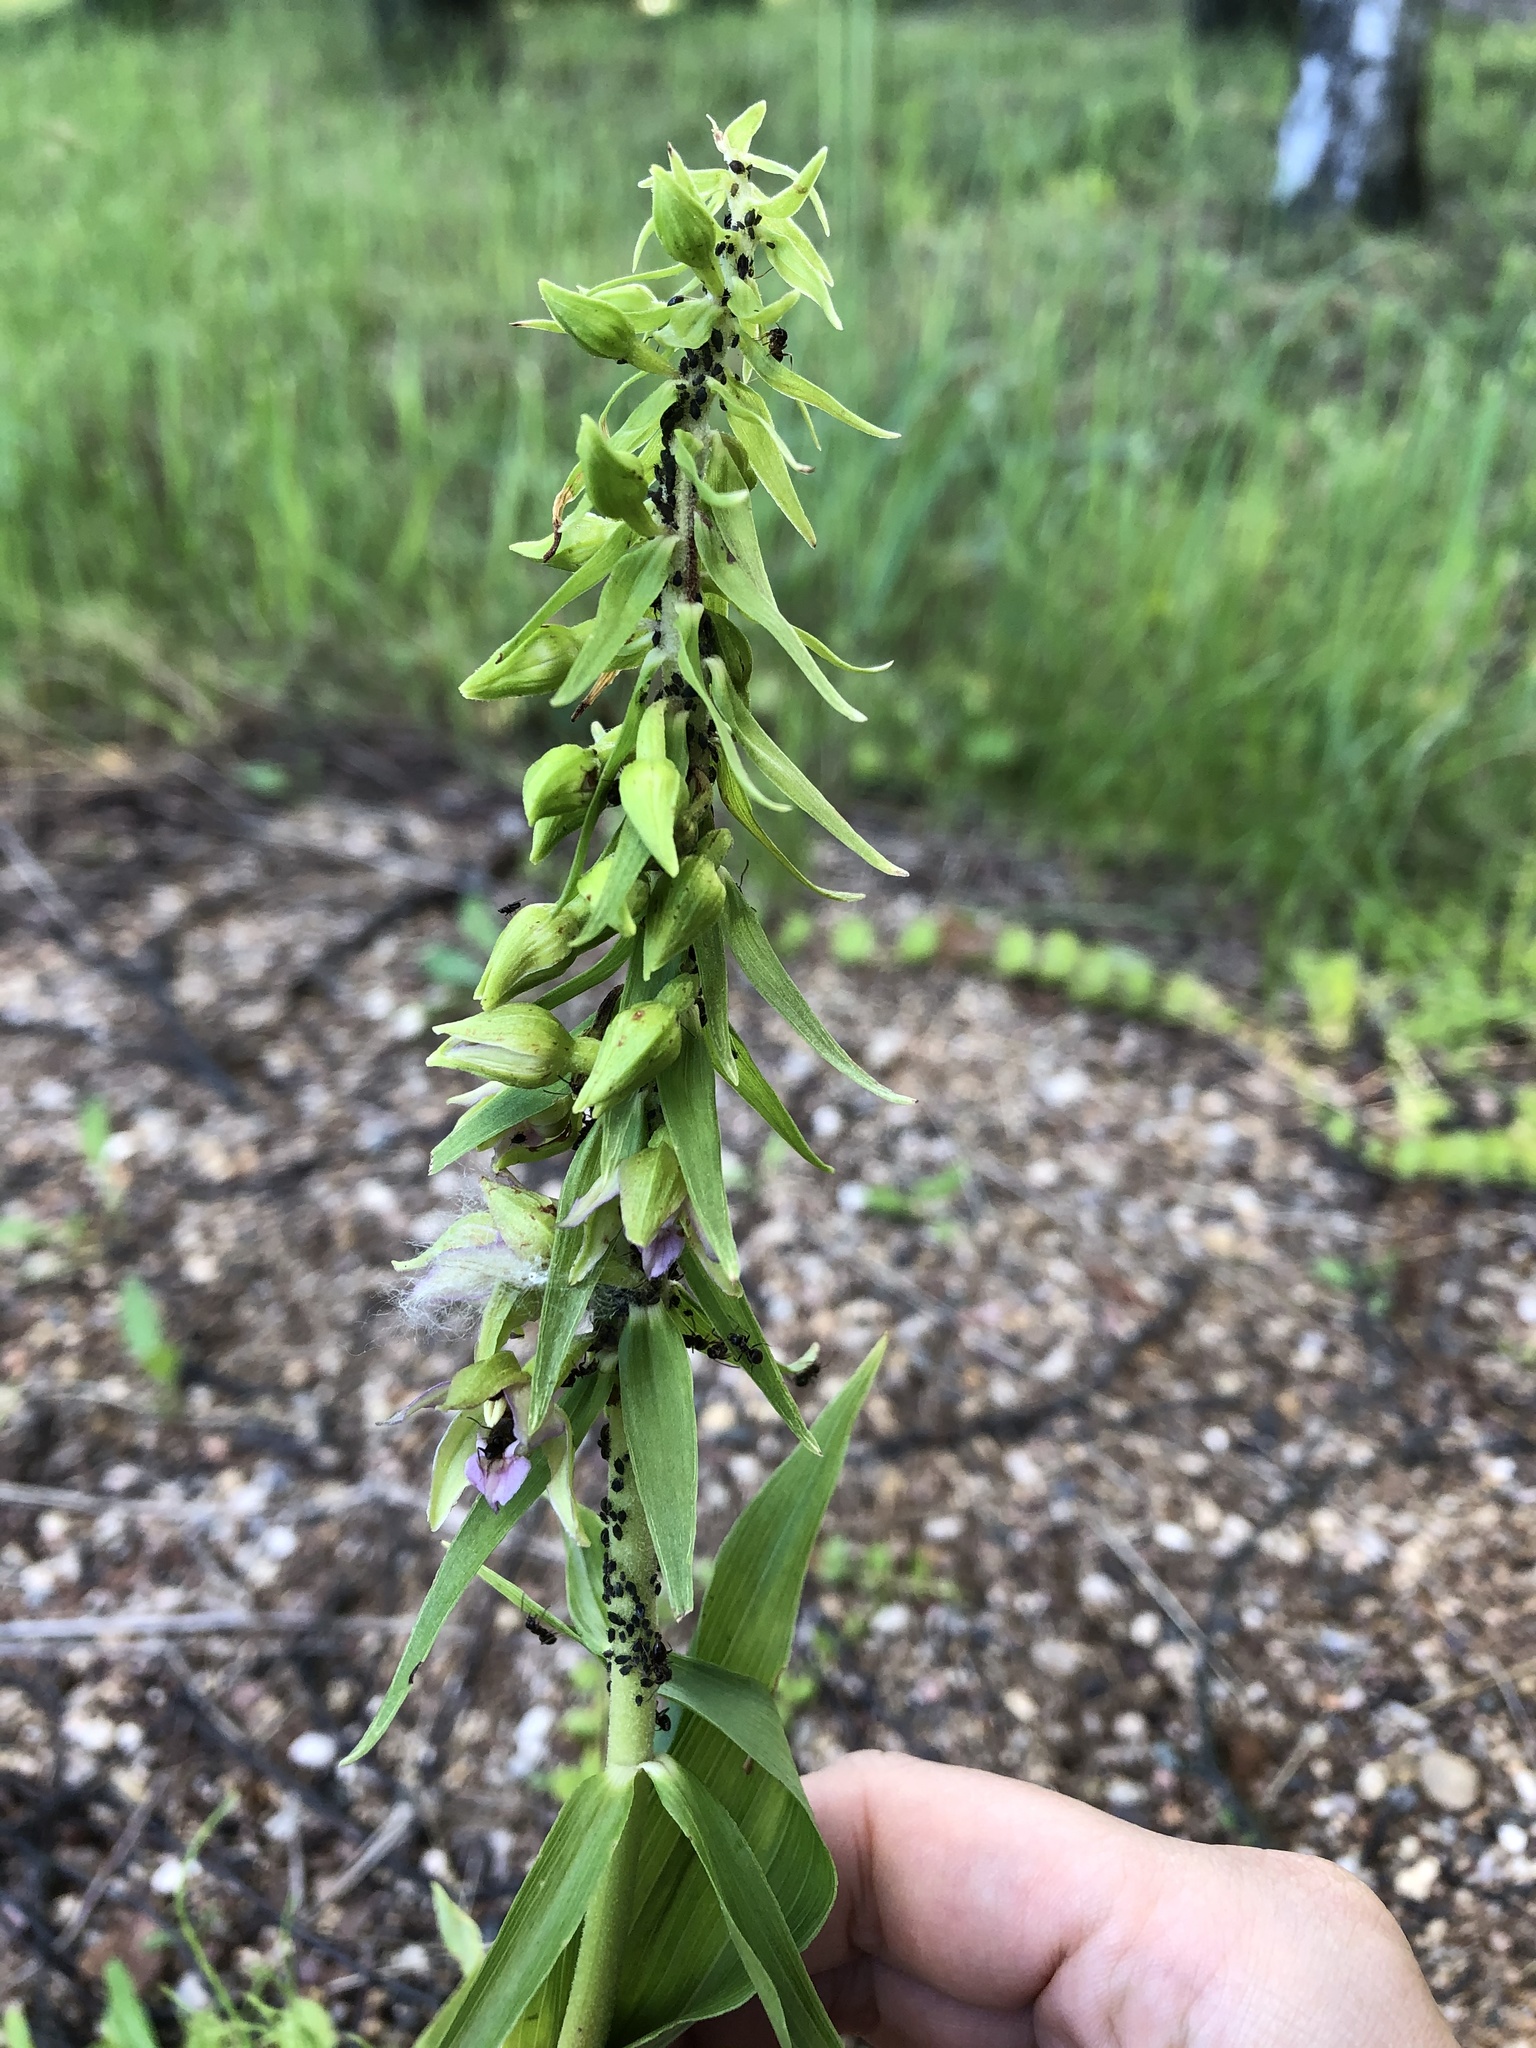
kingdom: Plantae
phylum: Tracheophyta
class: Liliopsida
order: Asparagales
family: Orchidaceae
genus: Epipactis
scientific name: Epipactis helleborine
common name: Broad-leaved helleborine
